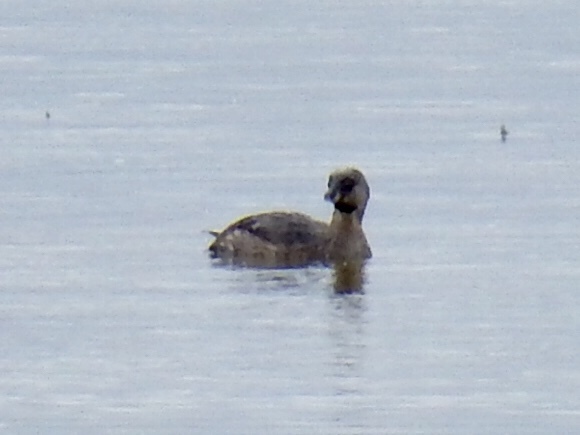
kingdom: Animalia
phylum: Chordata
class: Aves
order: Podicipediformes
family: Podicipedidae
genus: Podilymbus
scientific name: Podilymbus podiceps
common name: Pied-billed grebe
